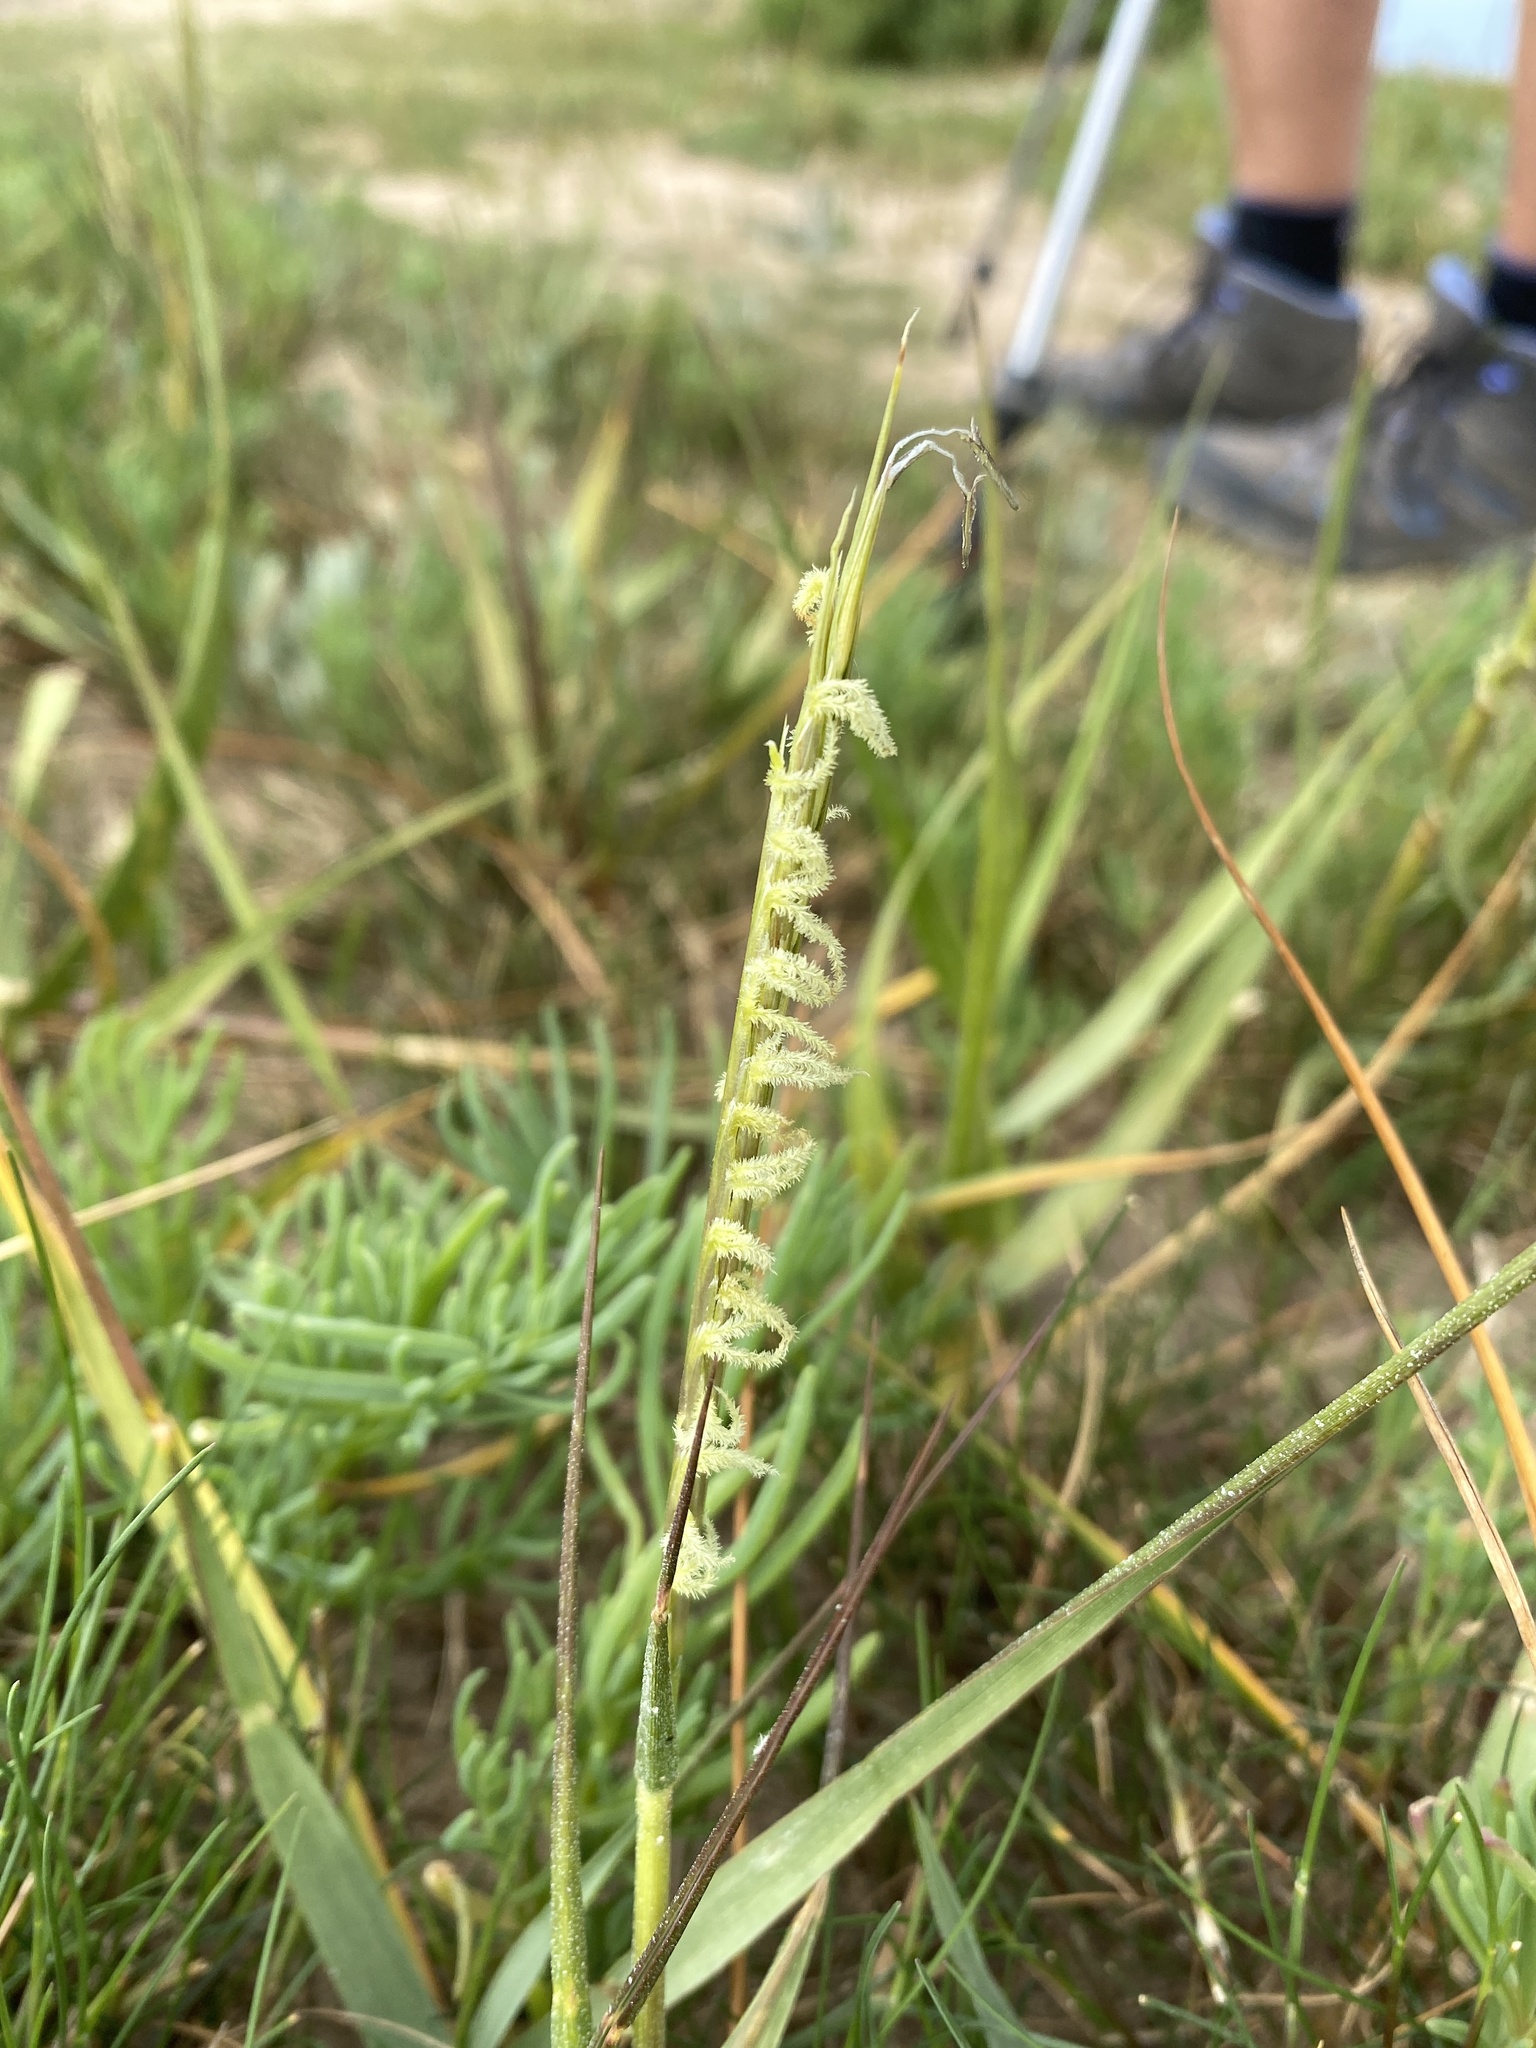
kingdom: Plantae
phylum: Tracheophyta
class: Liliopsida
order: Poales
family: Poaceae
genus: Sporobolus
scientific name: Sporobolus anglicus
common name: English cordgrass
